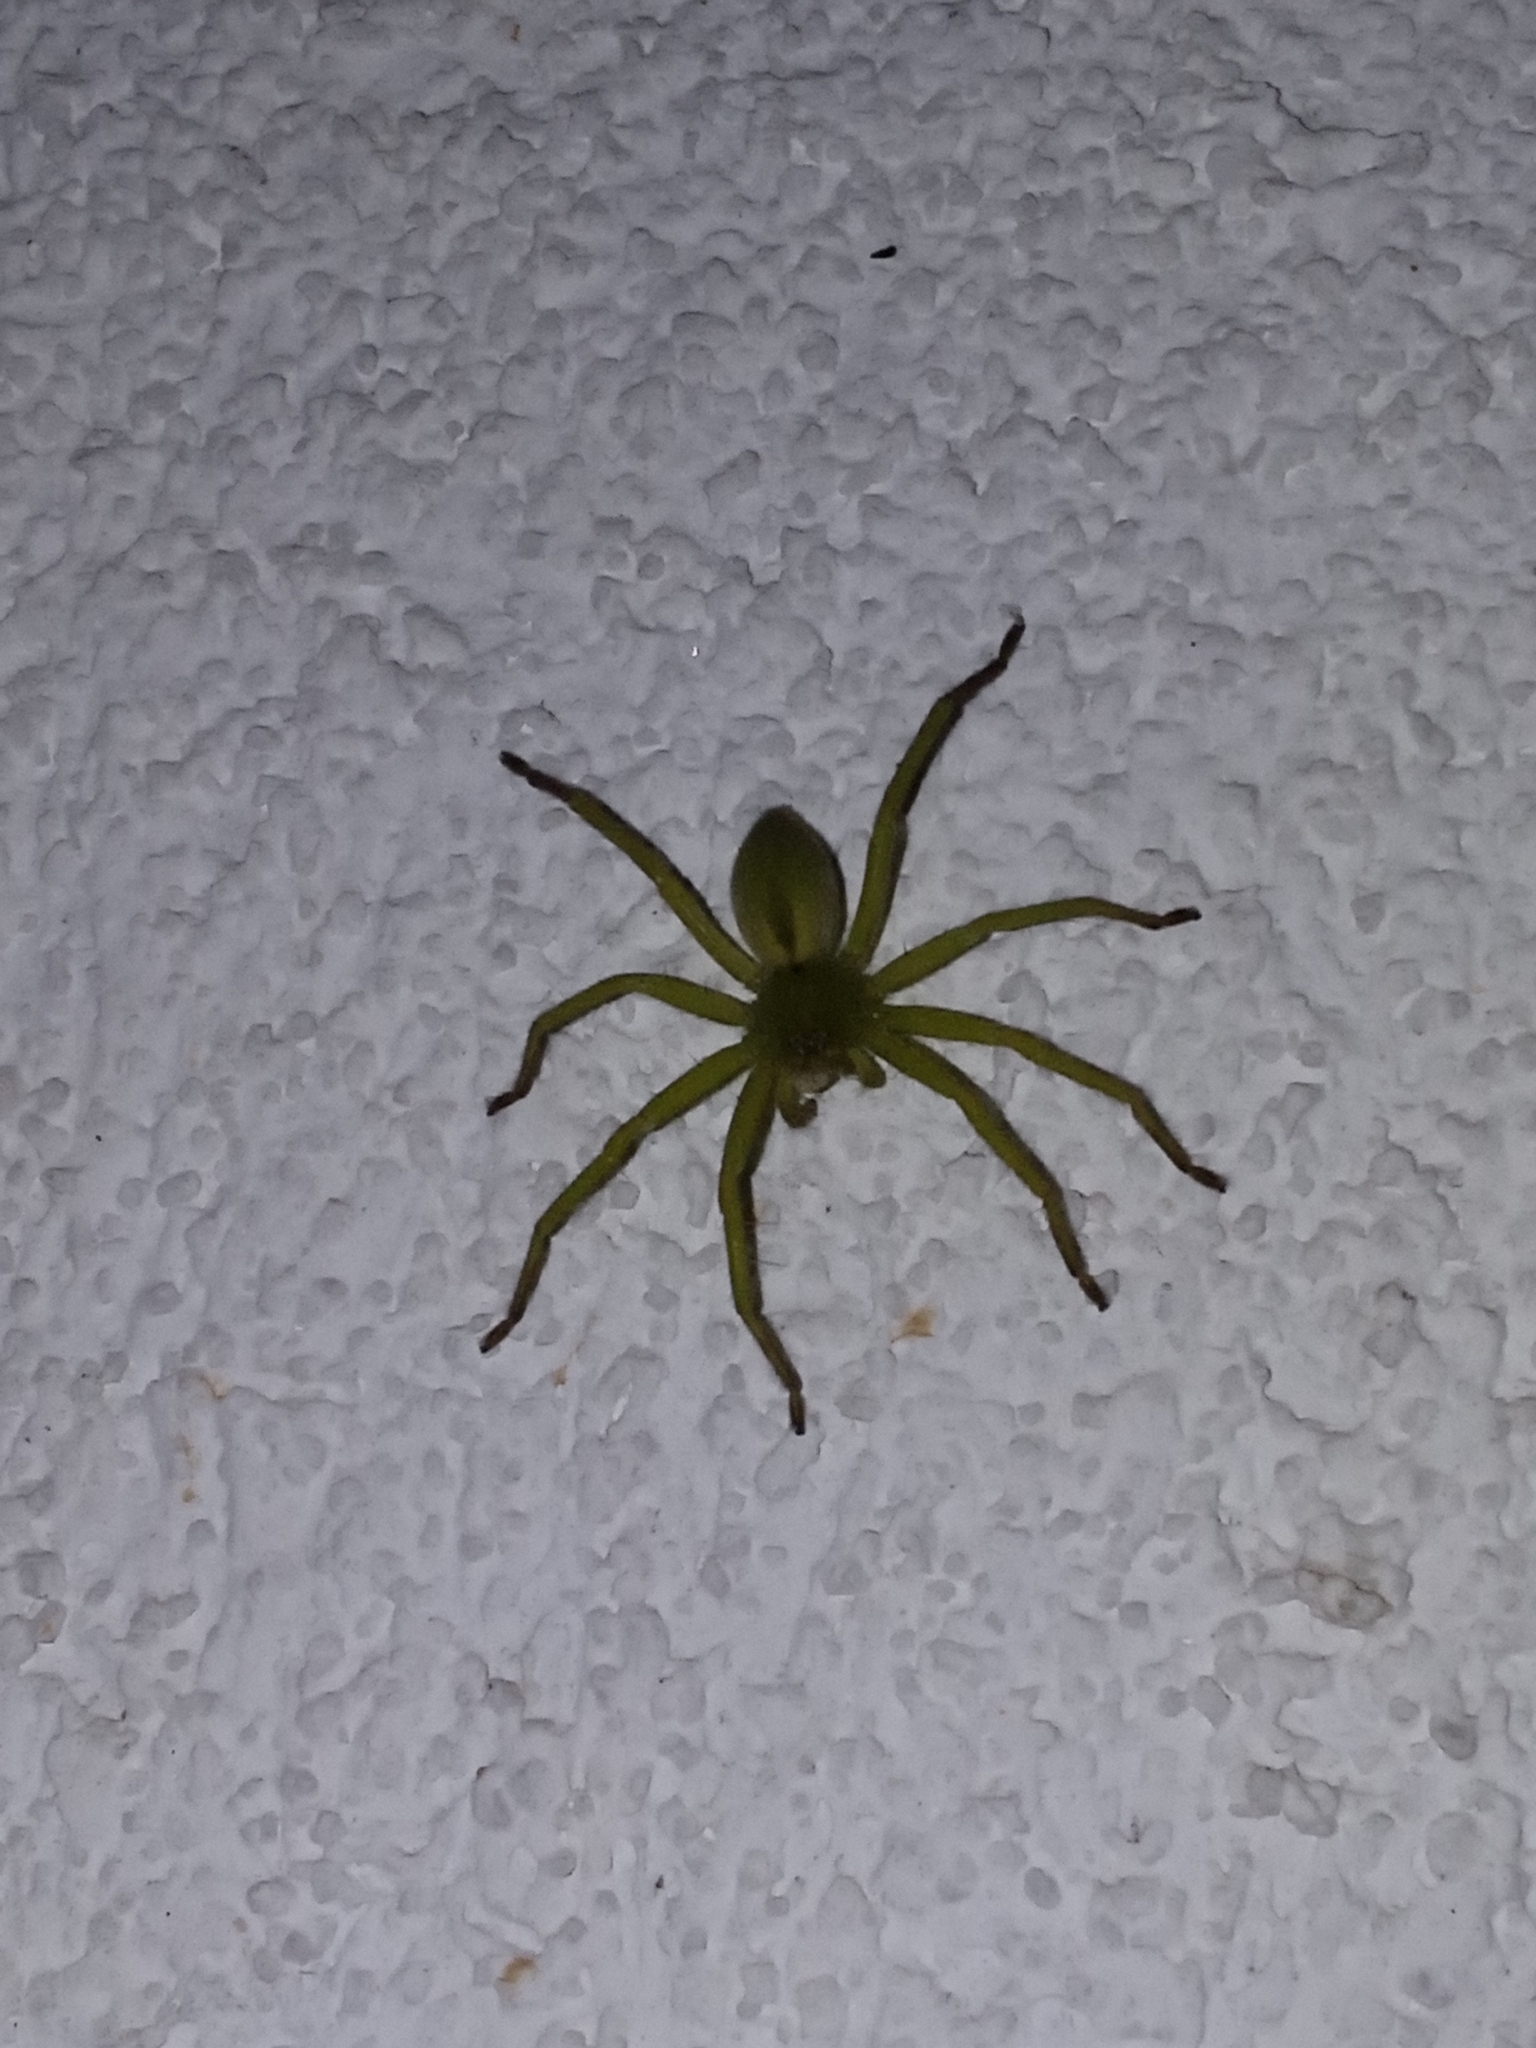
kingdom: Animalia
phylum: Arthropoda
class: Arachnida
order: Araneae
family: Sparassidae
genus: Micrommata
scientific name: Micrommata ligurina
